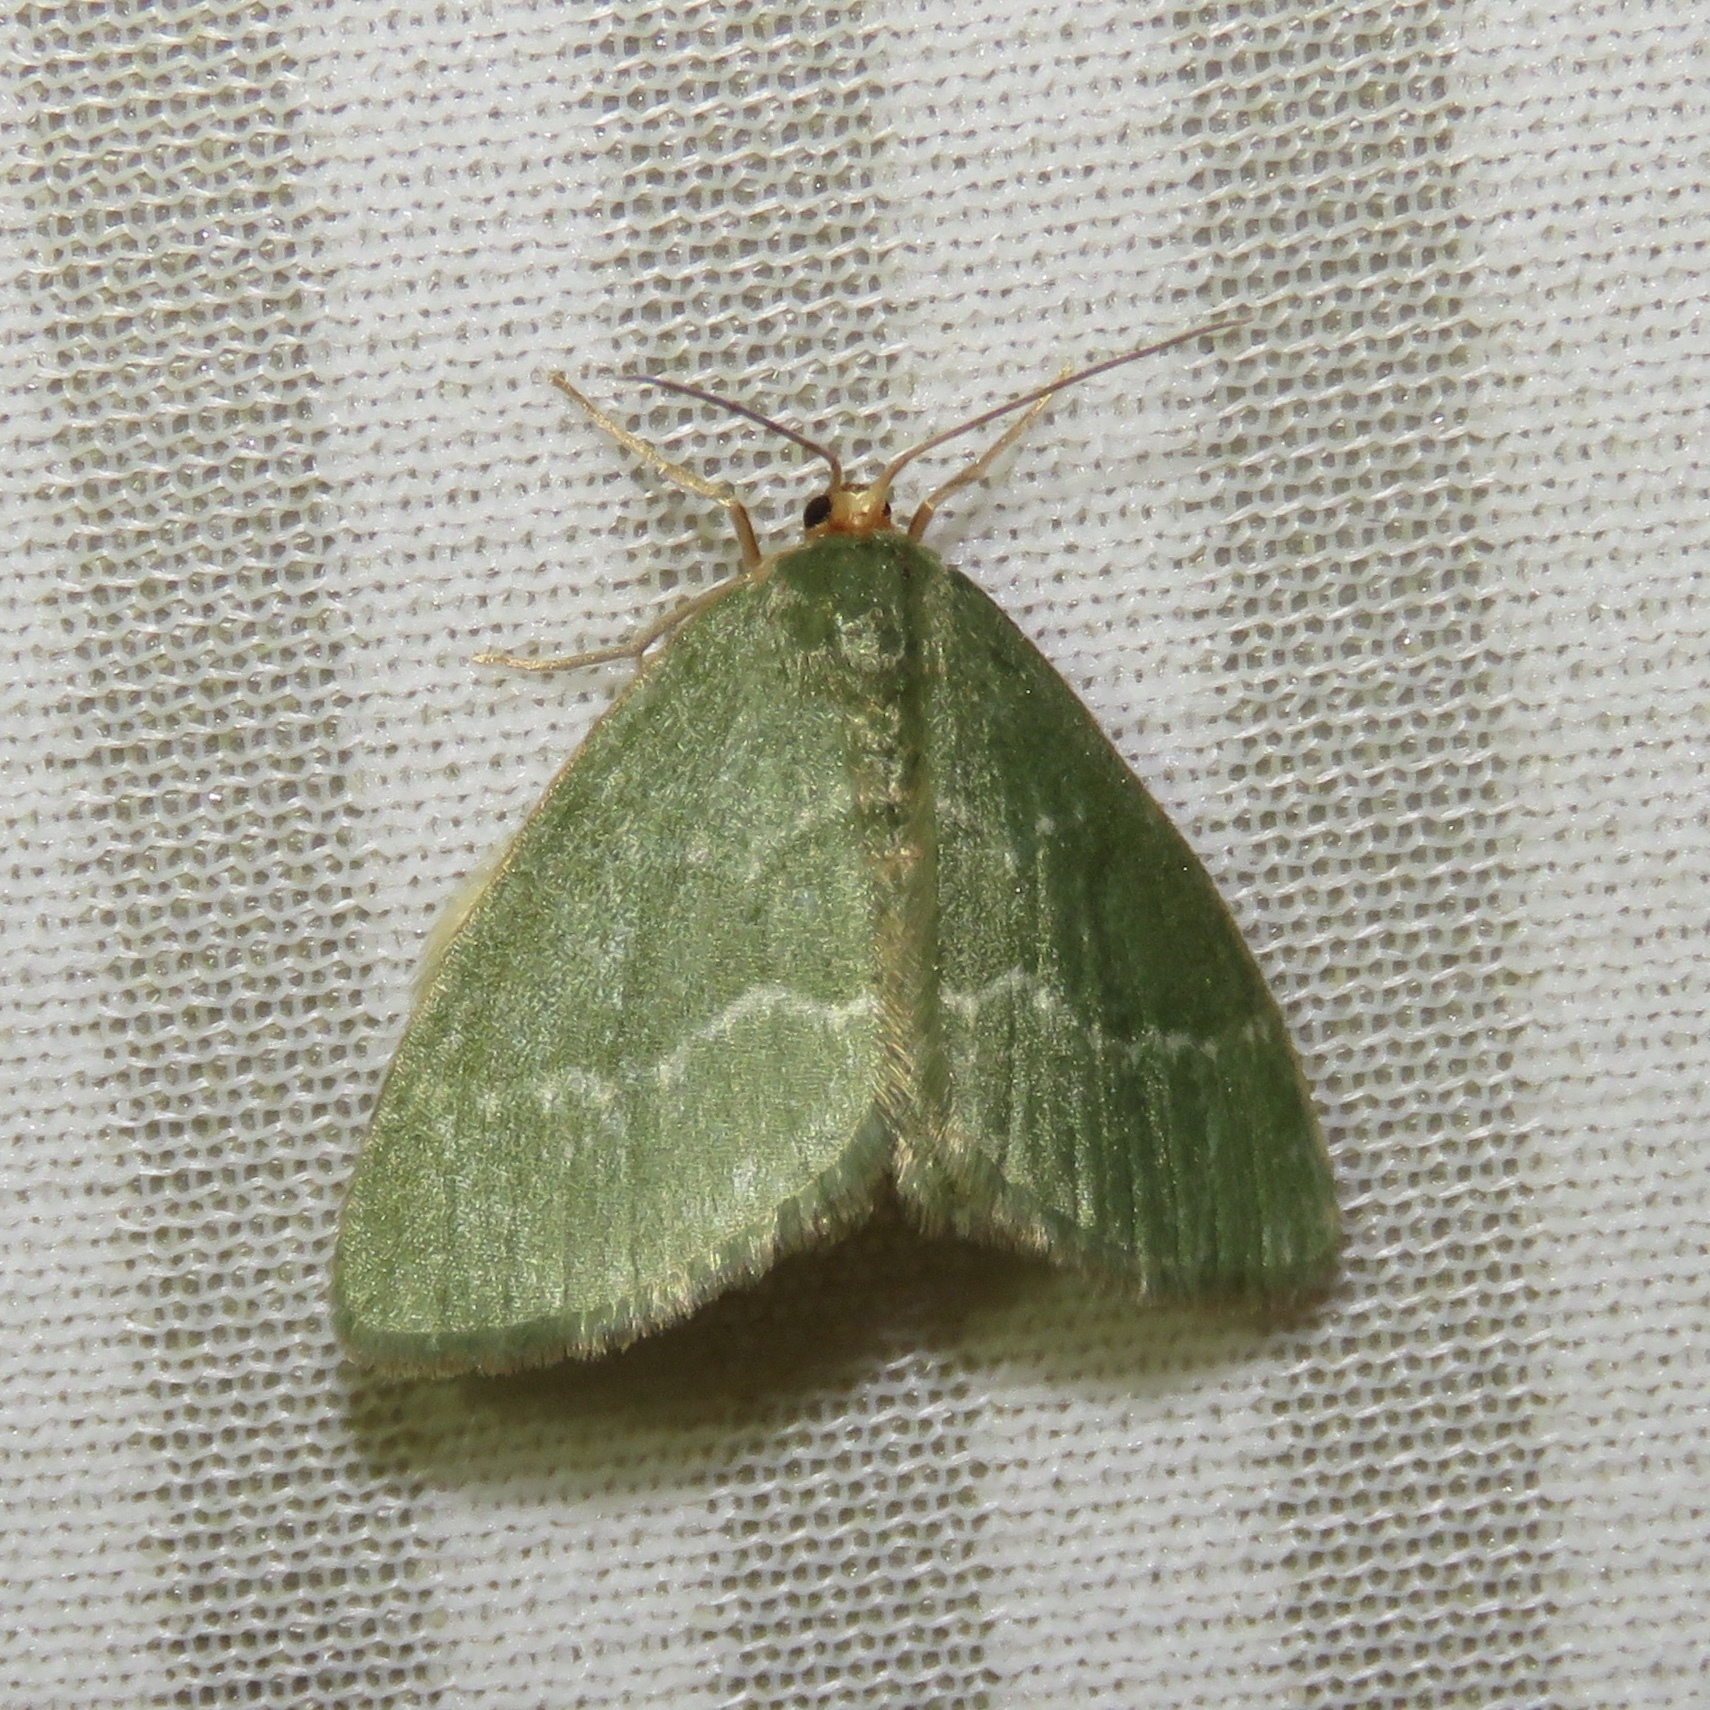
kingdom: Animalia
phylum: Arthropoda
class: Insecta
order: Lepidoptera
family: Geometridae
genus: Thalera
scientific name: Thalera pistasciaria
